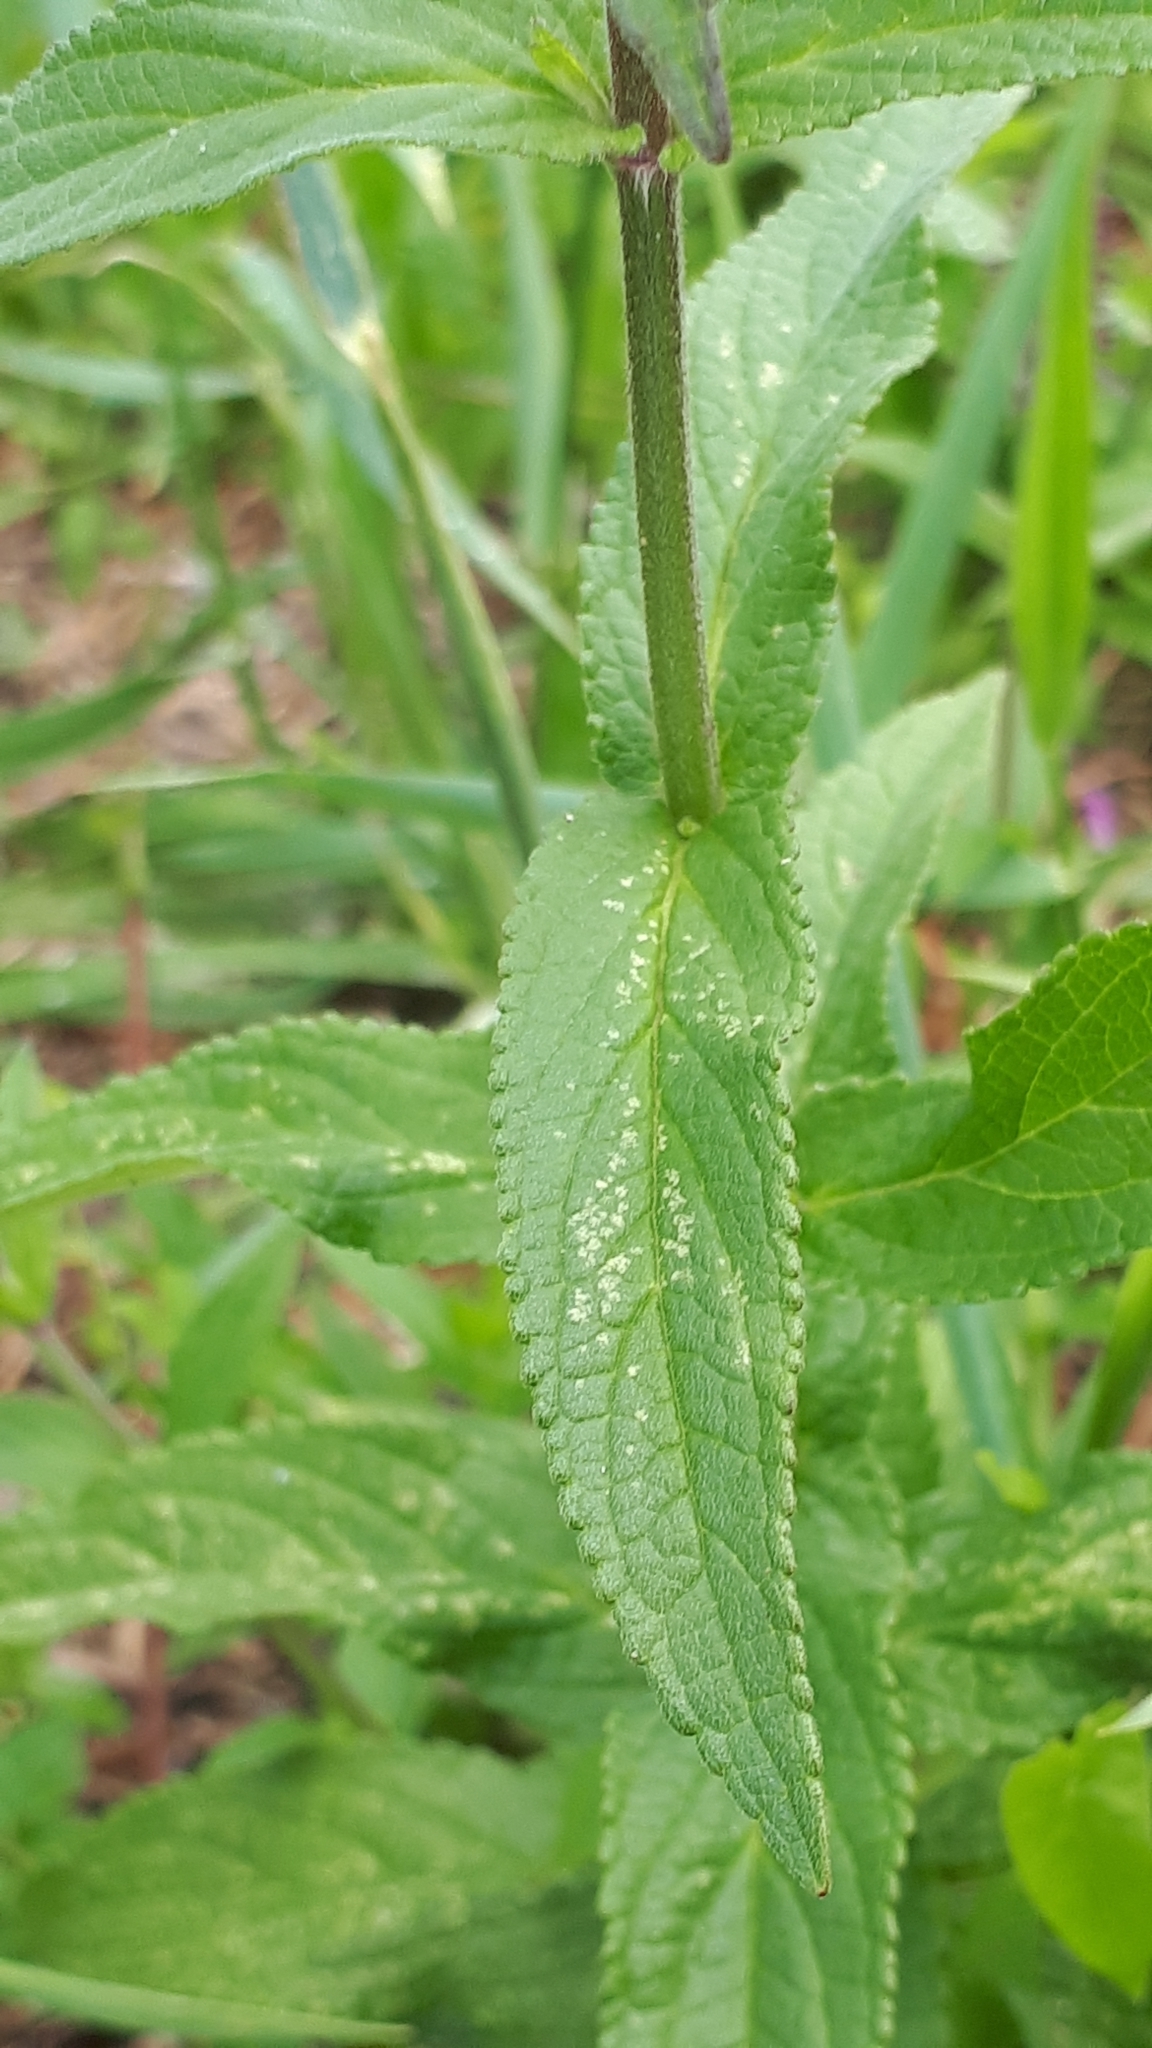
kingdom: Plantae
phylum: Tracheophyta
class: Magnoliopsida
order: Lamiales
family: Lamiaceae
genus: Stachys
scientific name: Stachys palustris
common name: Marsh woundwort
